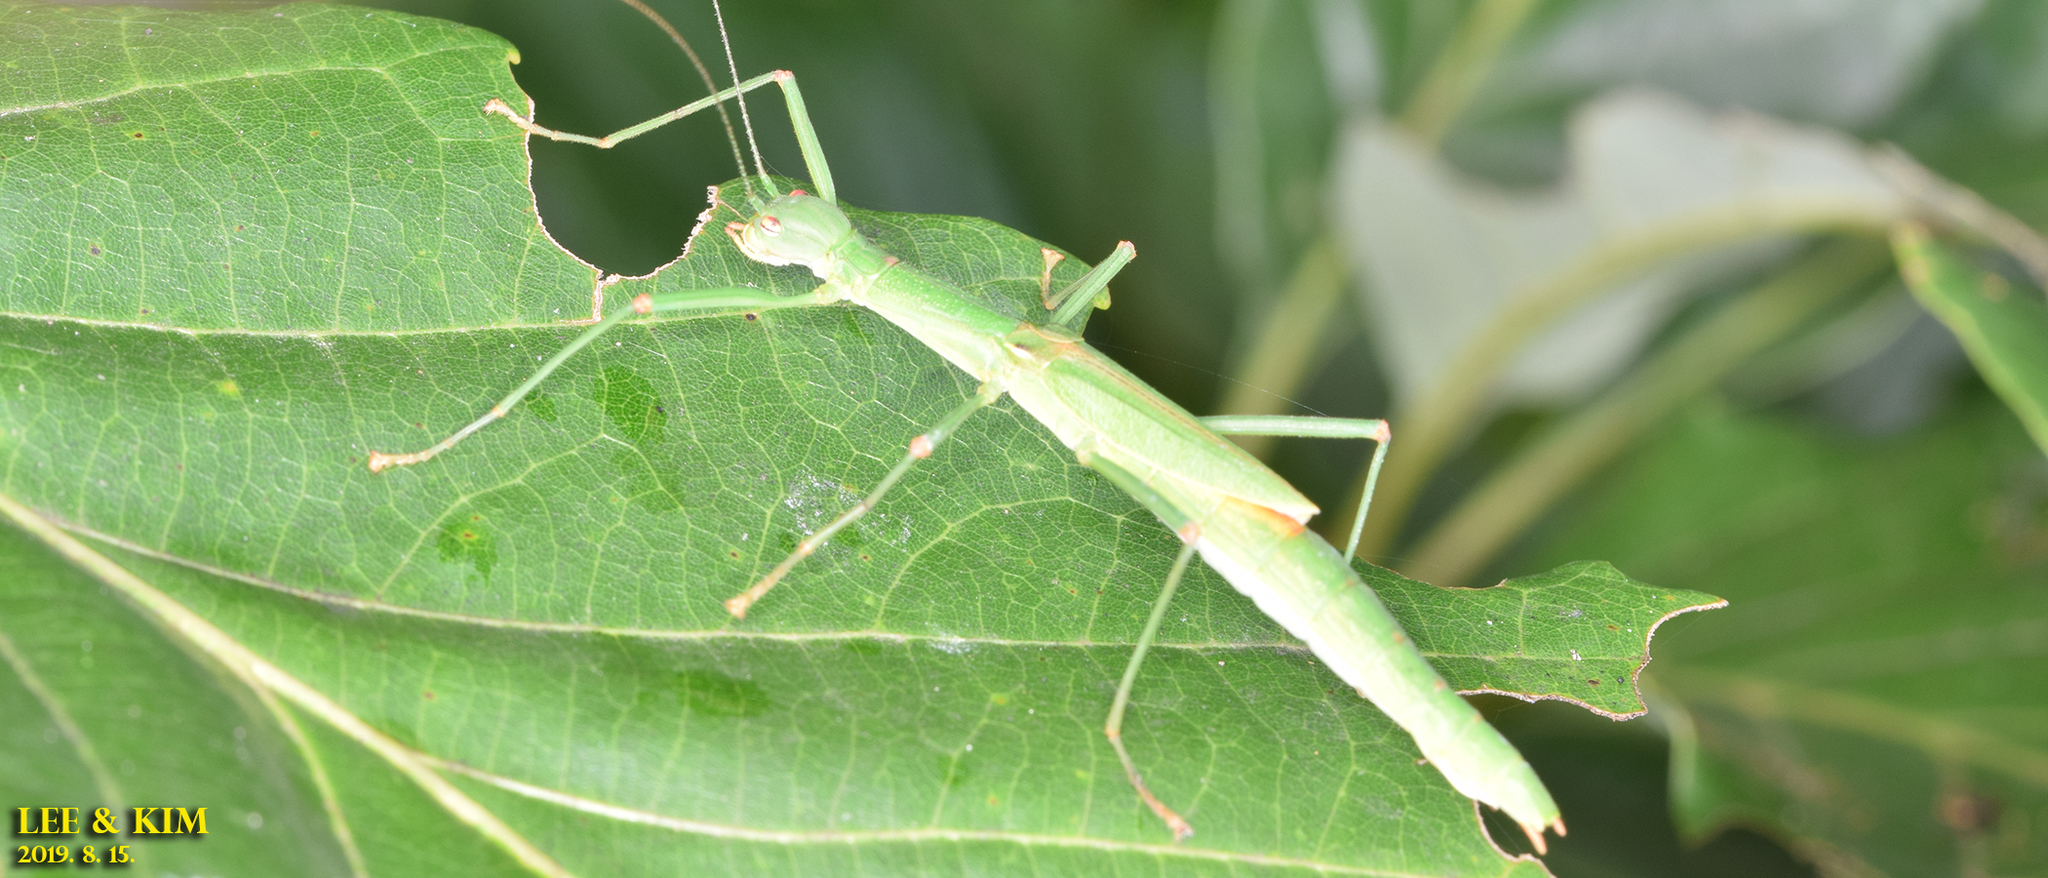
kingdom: Animalia
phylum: Arthropoda
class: Insecta
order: Phasmida
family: Lonchodidae
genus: Micadina
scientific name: Micadina yasumatsui
